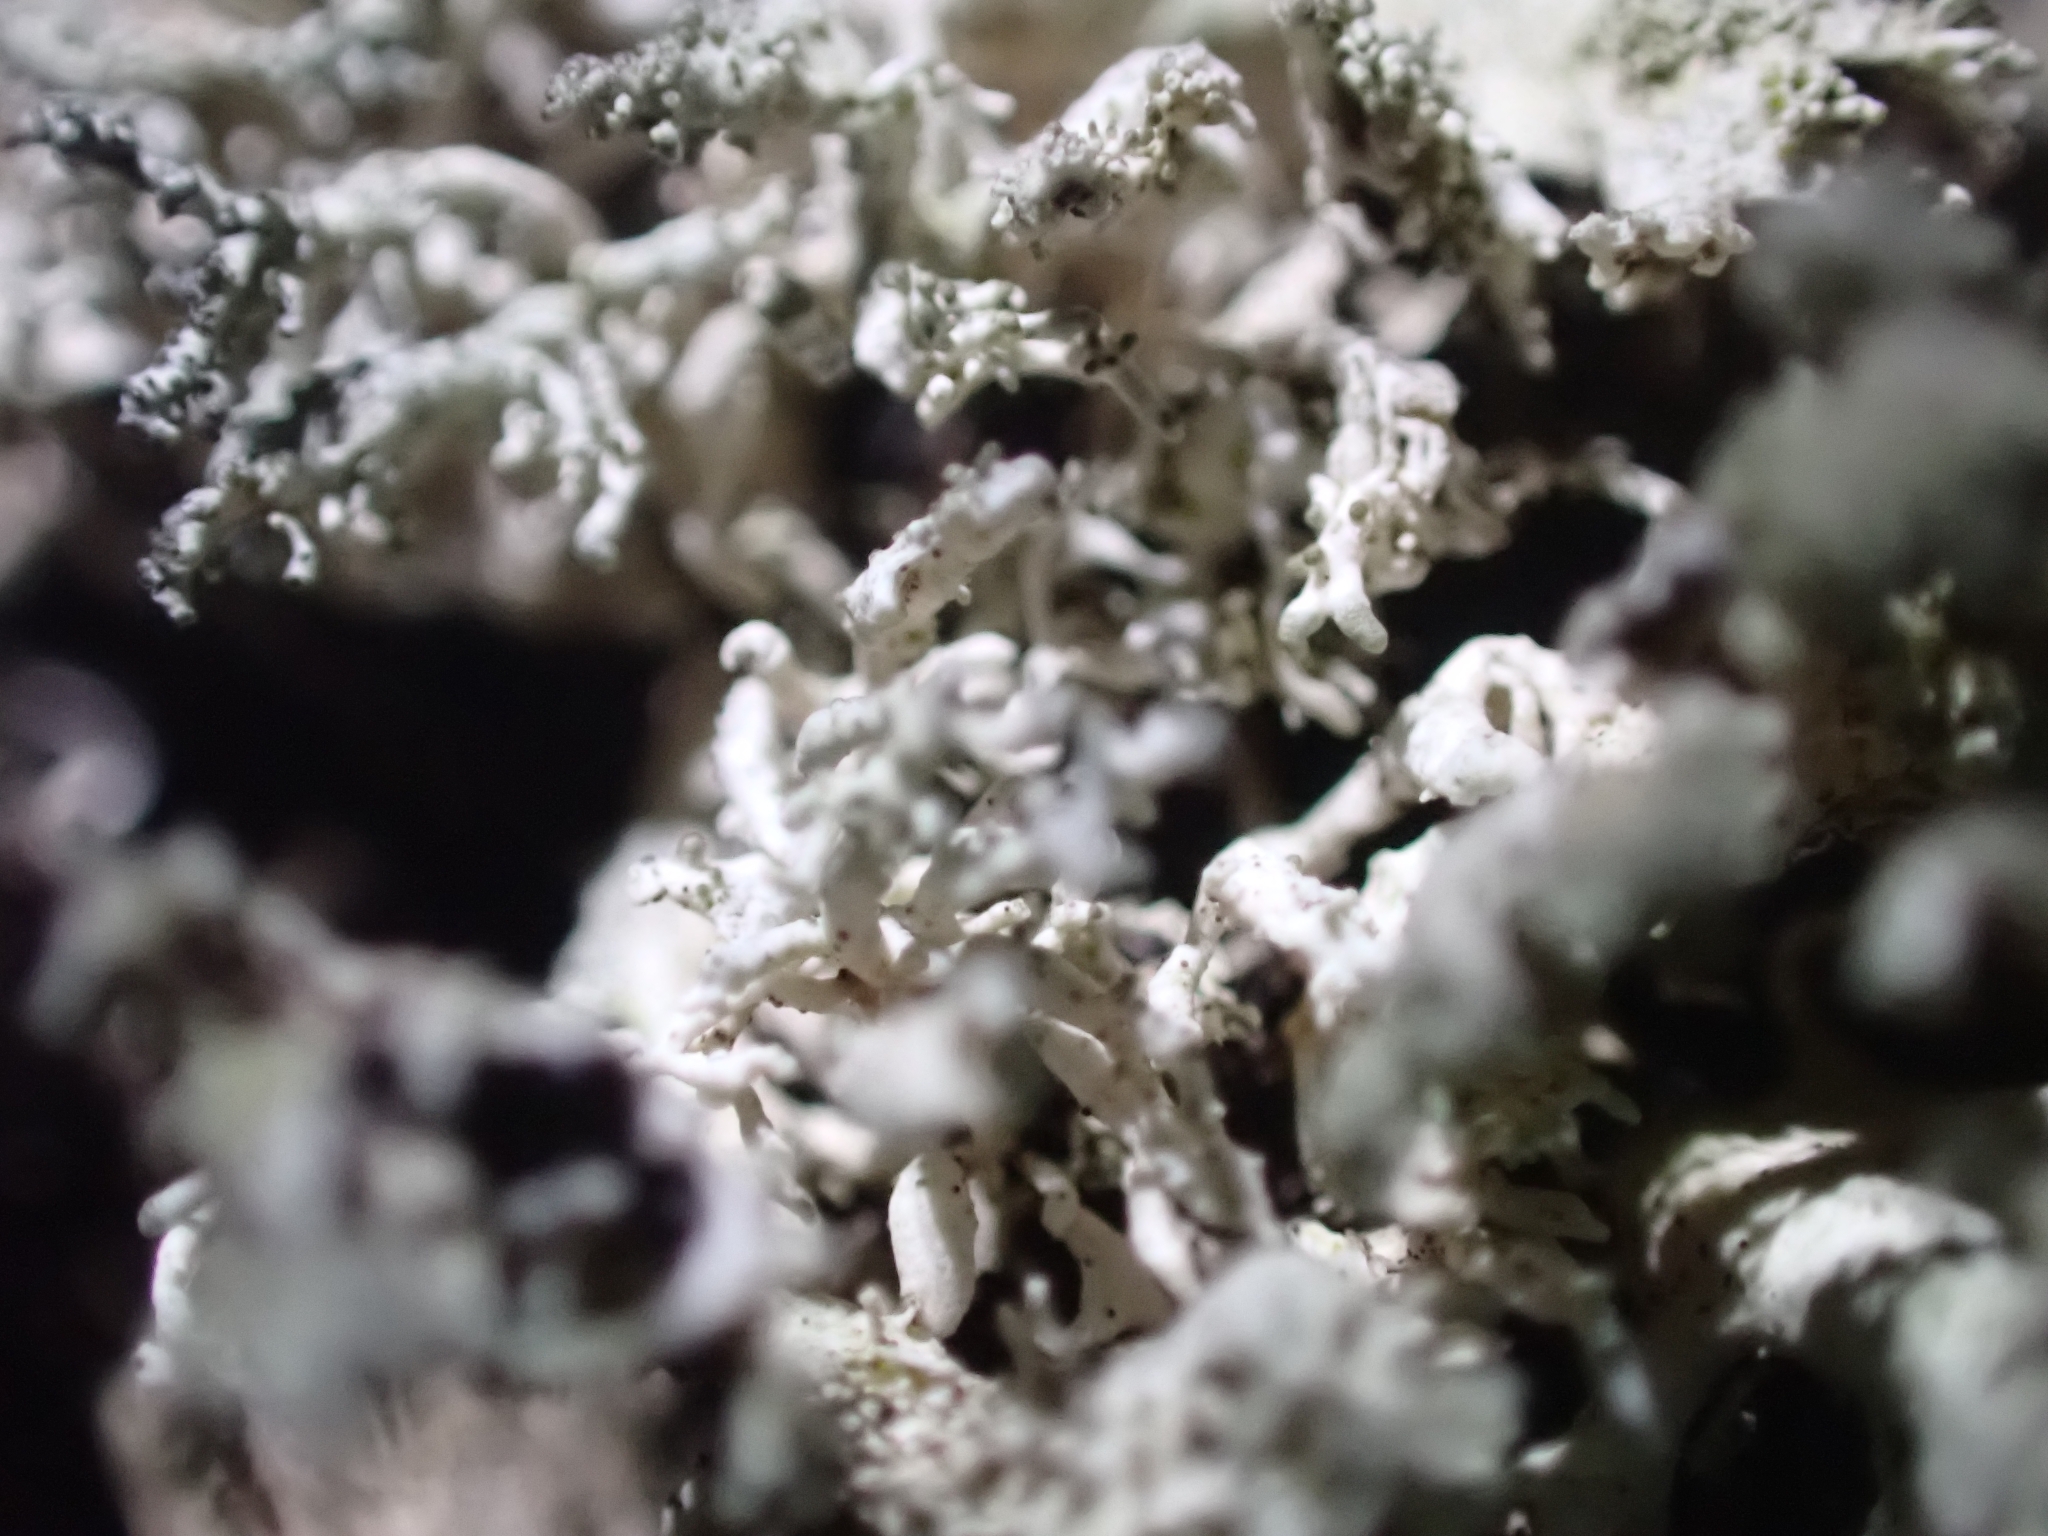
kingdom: Fungi
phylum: Ascomycota
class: Lecanoromycetes
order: Lecanorales
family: Parmeliaceae
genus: Pseudevernia
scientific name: Pseudevernia furfuracea
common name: Tree moss
